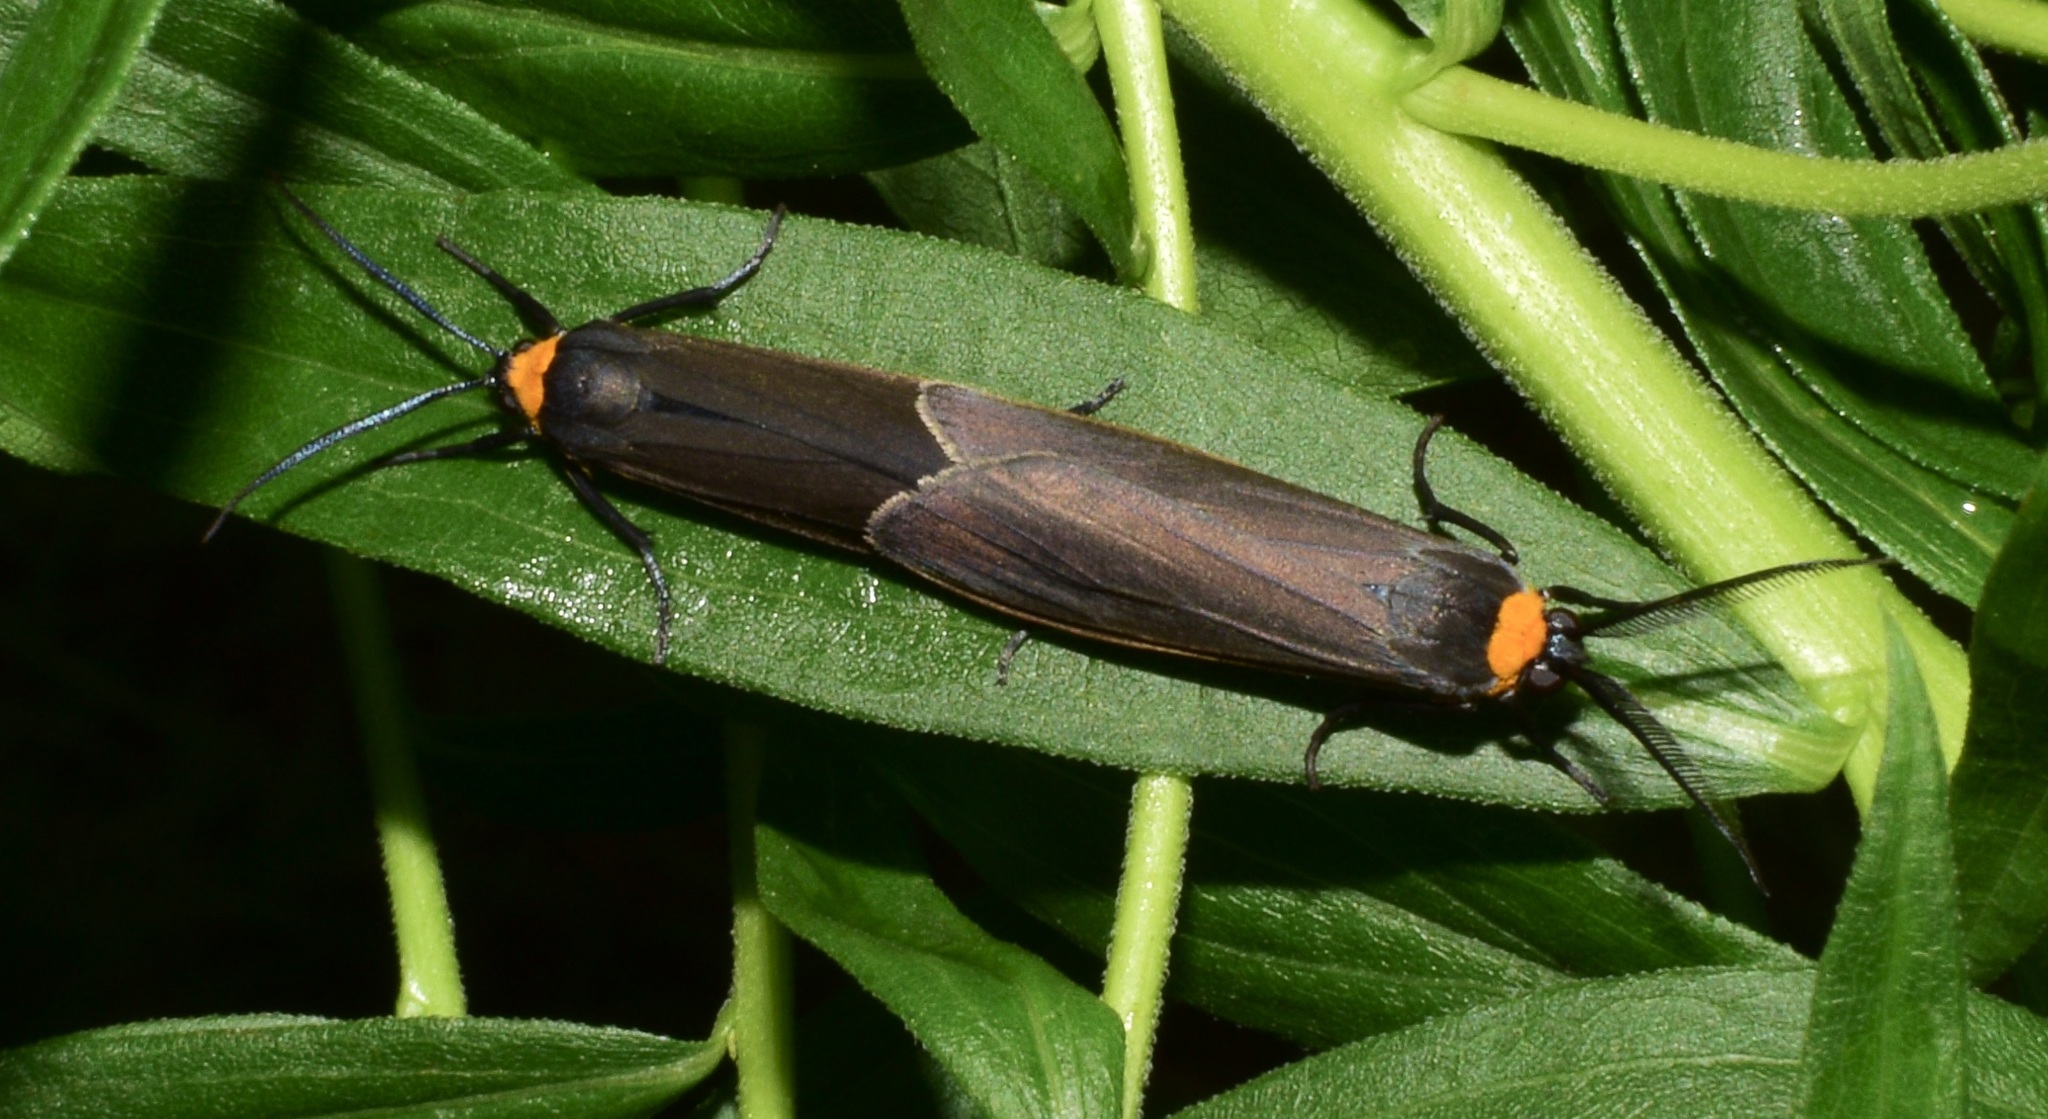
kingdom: Animalia
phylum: Arthropoda
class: Insecta
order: Lepidoptera
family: Erebidae
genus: Cisseps
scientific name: Cisseps fulvicollis
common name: Yellow-collared scape moth
